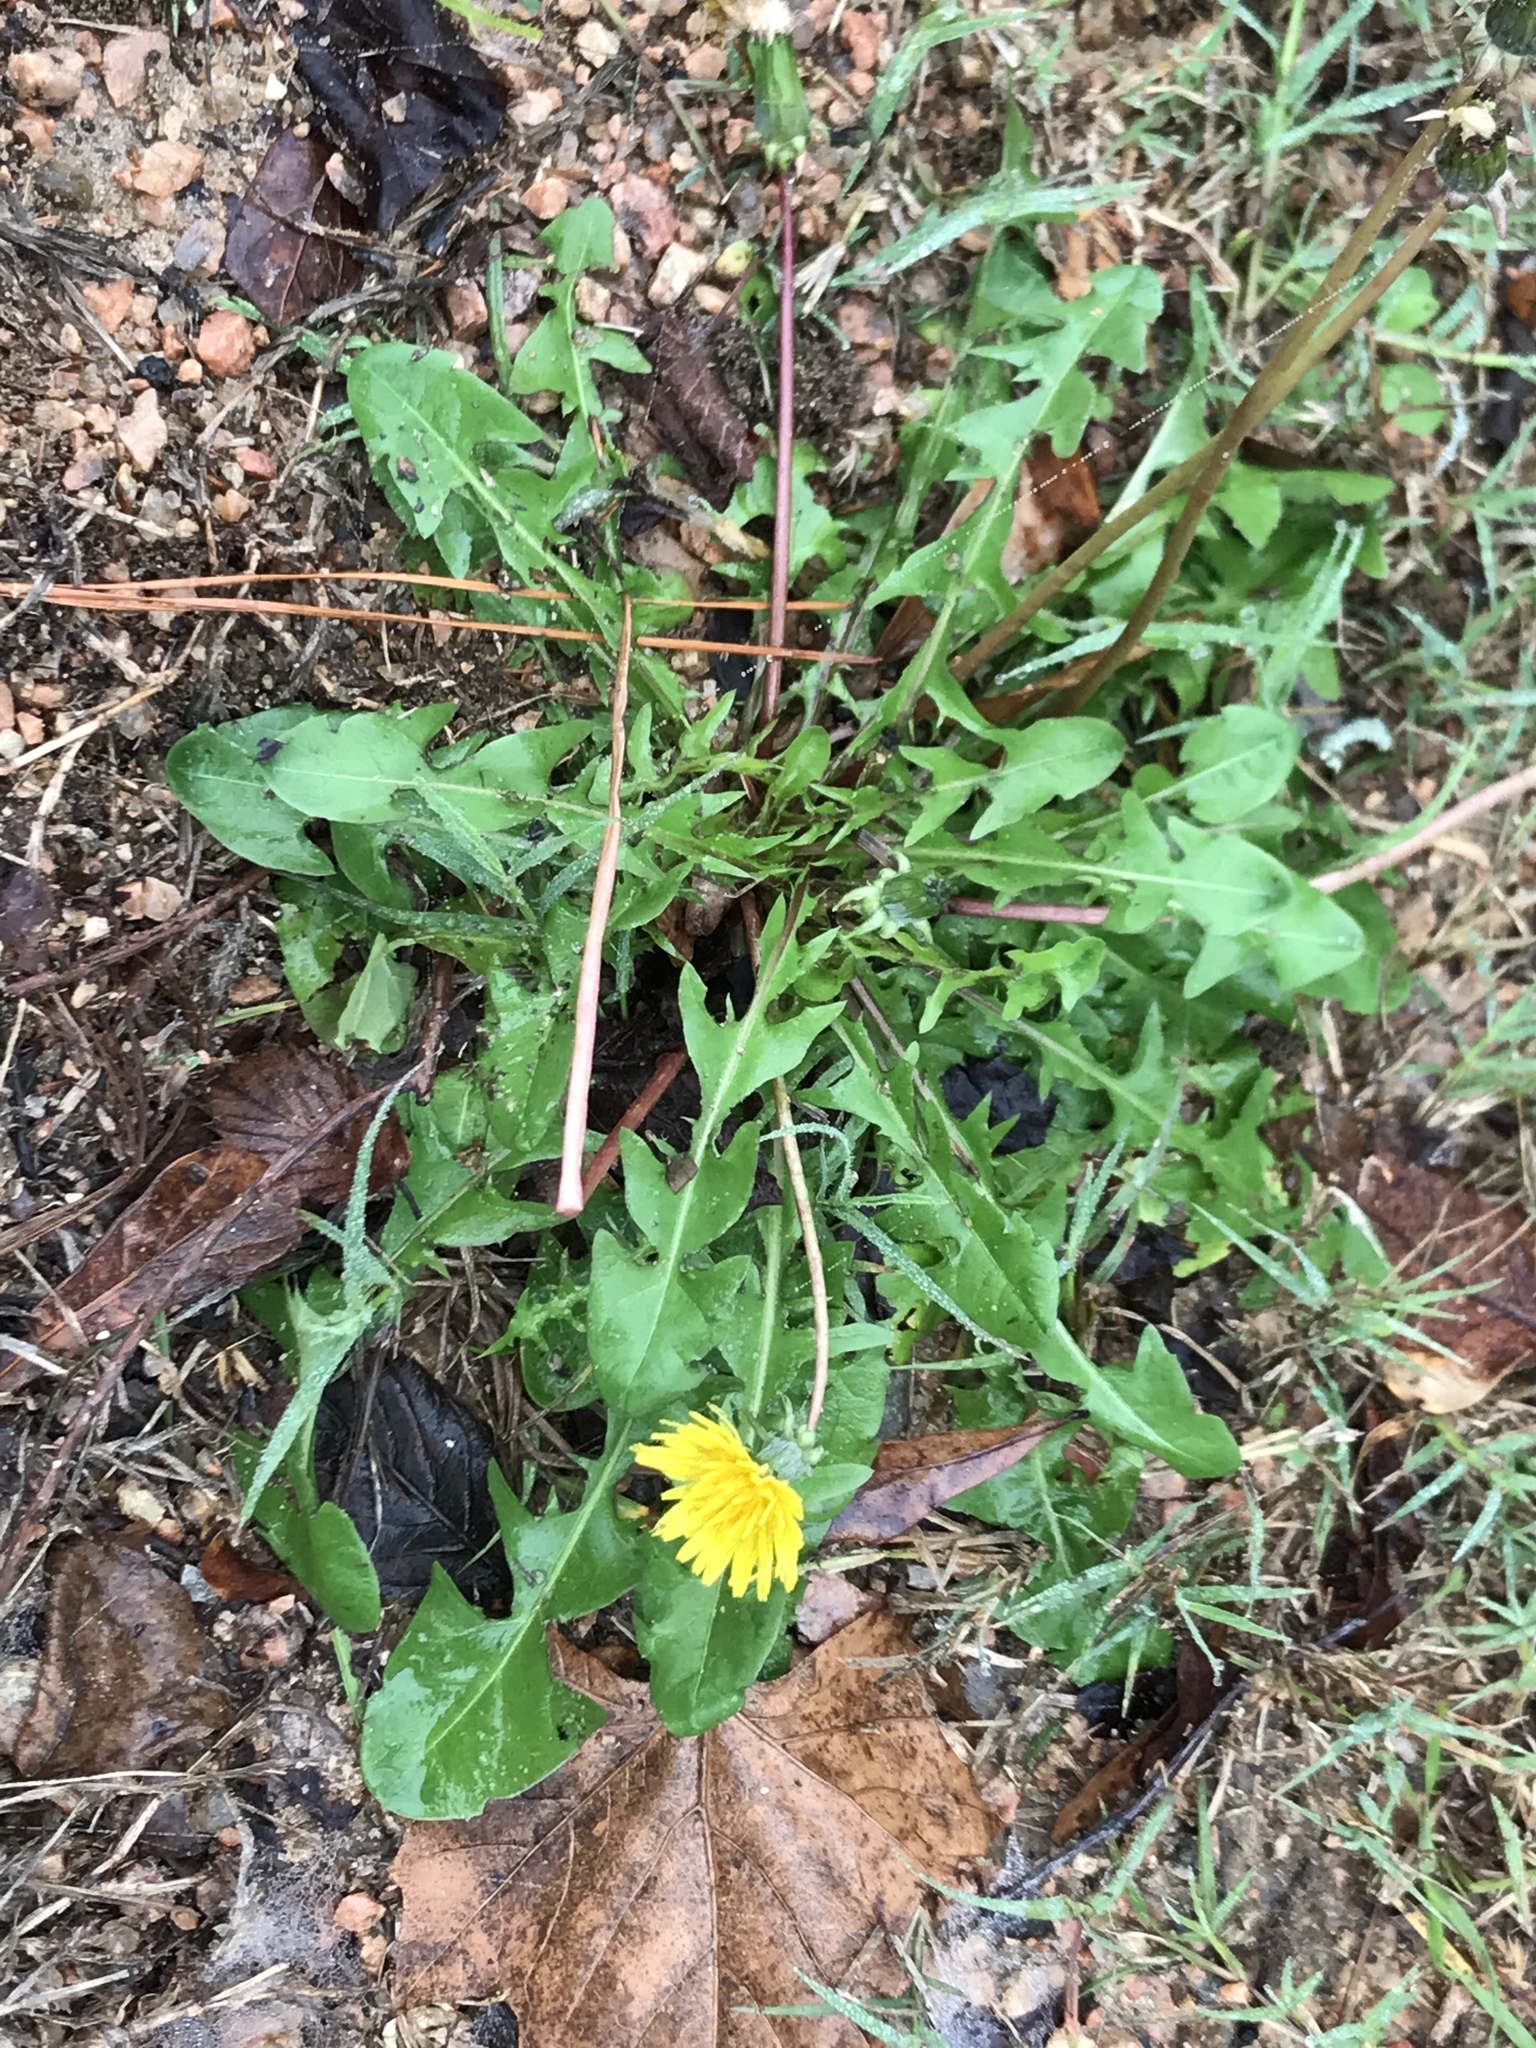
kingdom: Plantae
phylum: Tracheophyta
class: Magnoliopsida
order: Asterales
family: Asteraceae
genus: Taraxacum
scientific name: Taraxacum officinale
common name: Common dandelion
